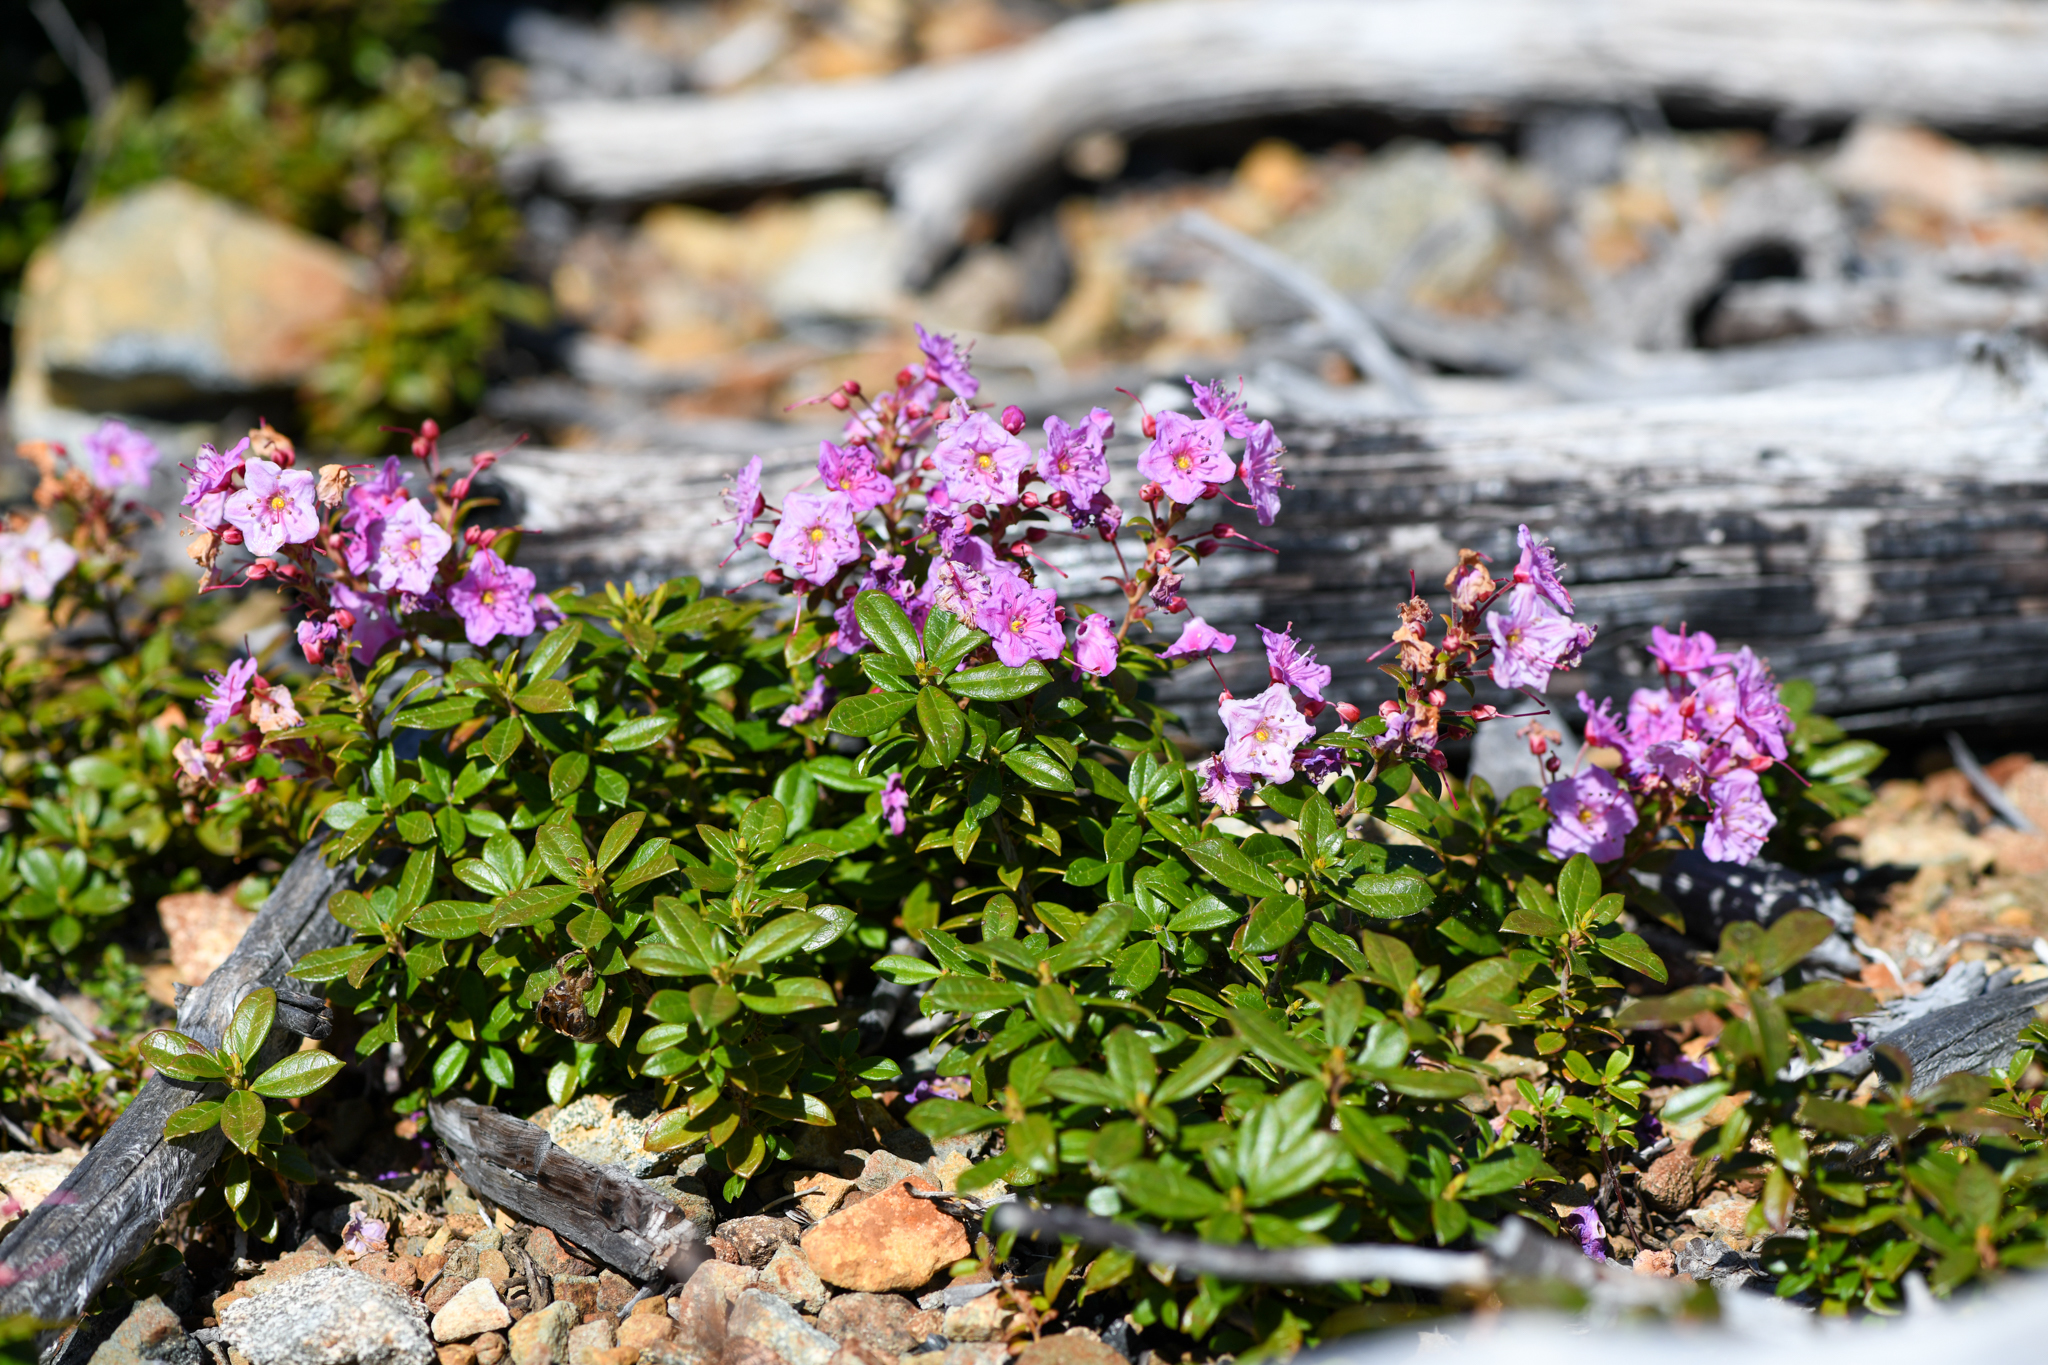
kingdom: Plantae
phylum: Tracheophyta
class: Magnoliopsida
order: Ericales
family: Ericaceae
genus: Kalmiopsis
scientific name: Kalmiopsis leachiana
